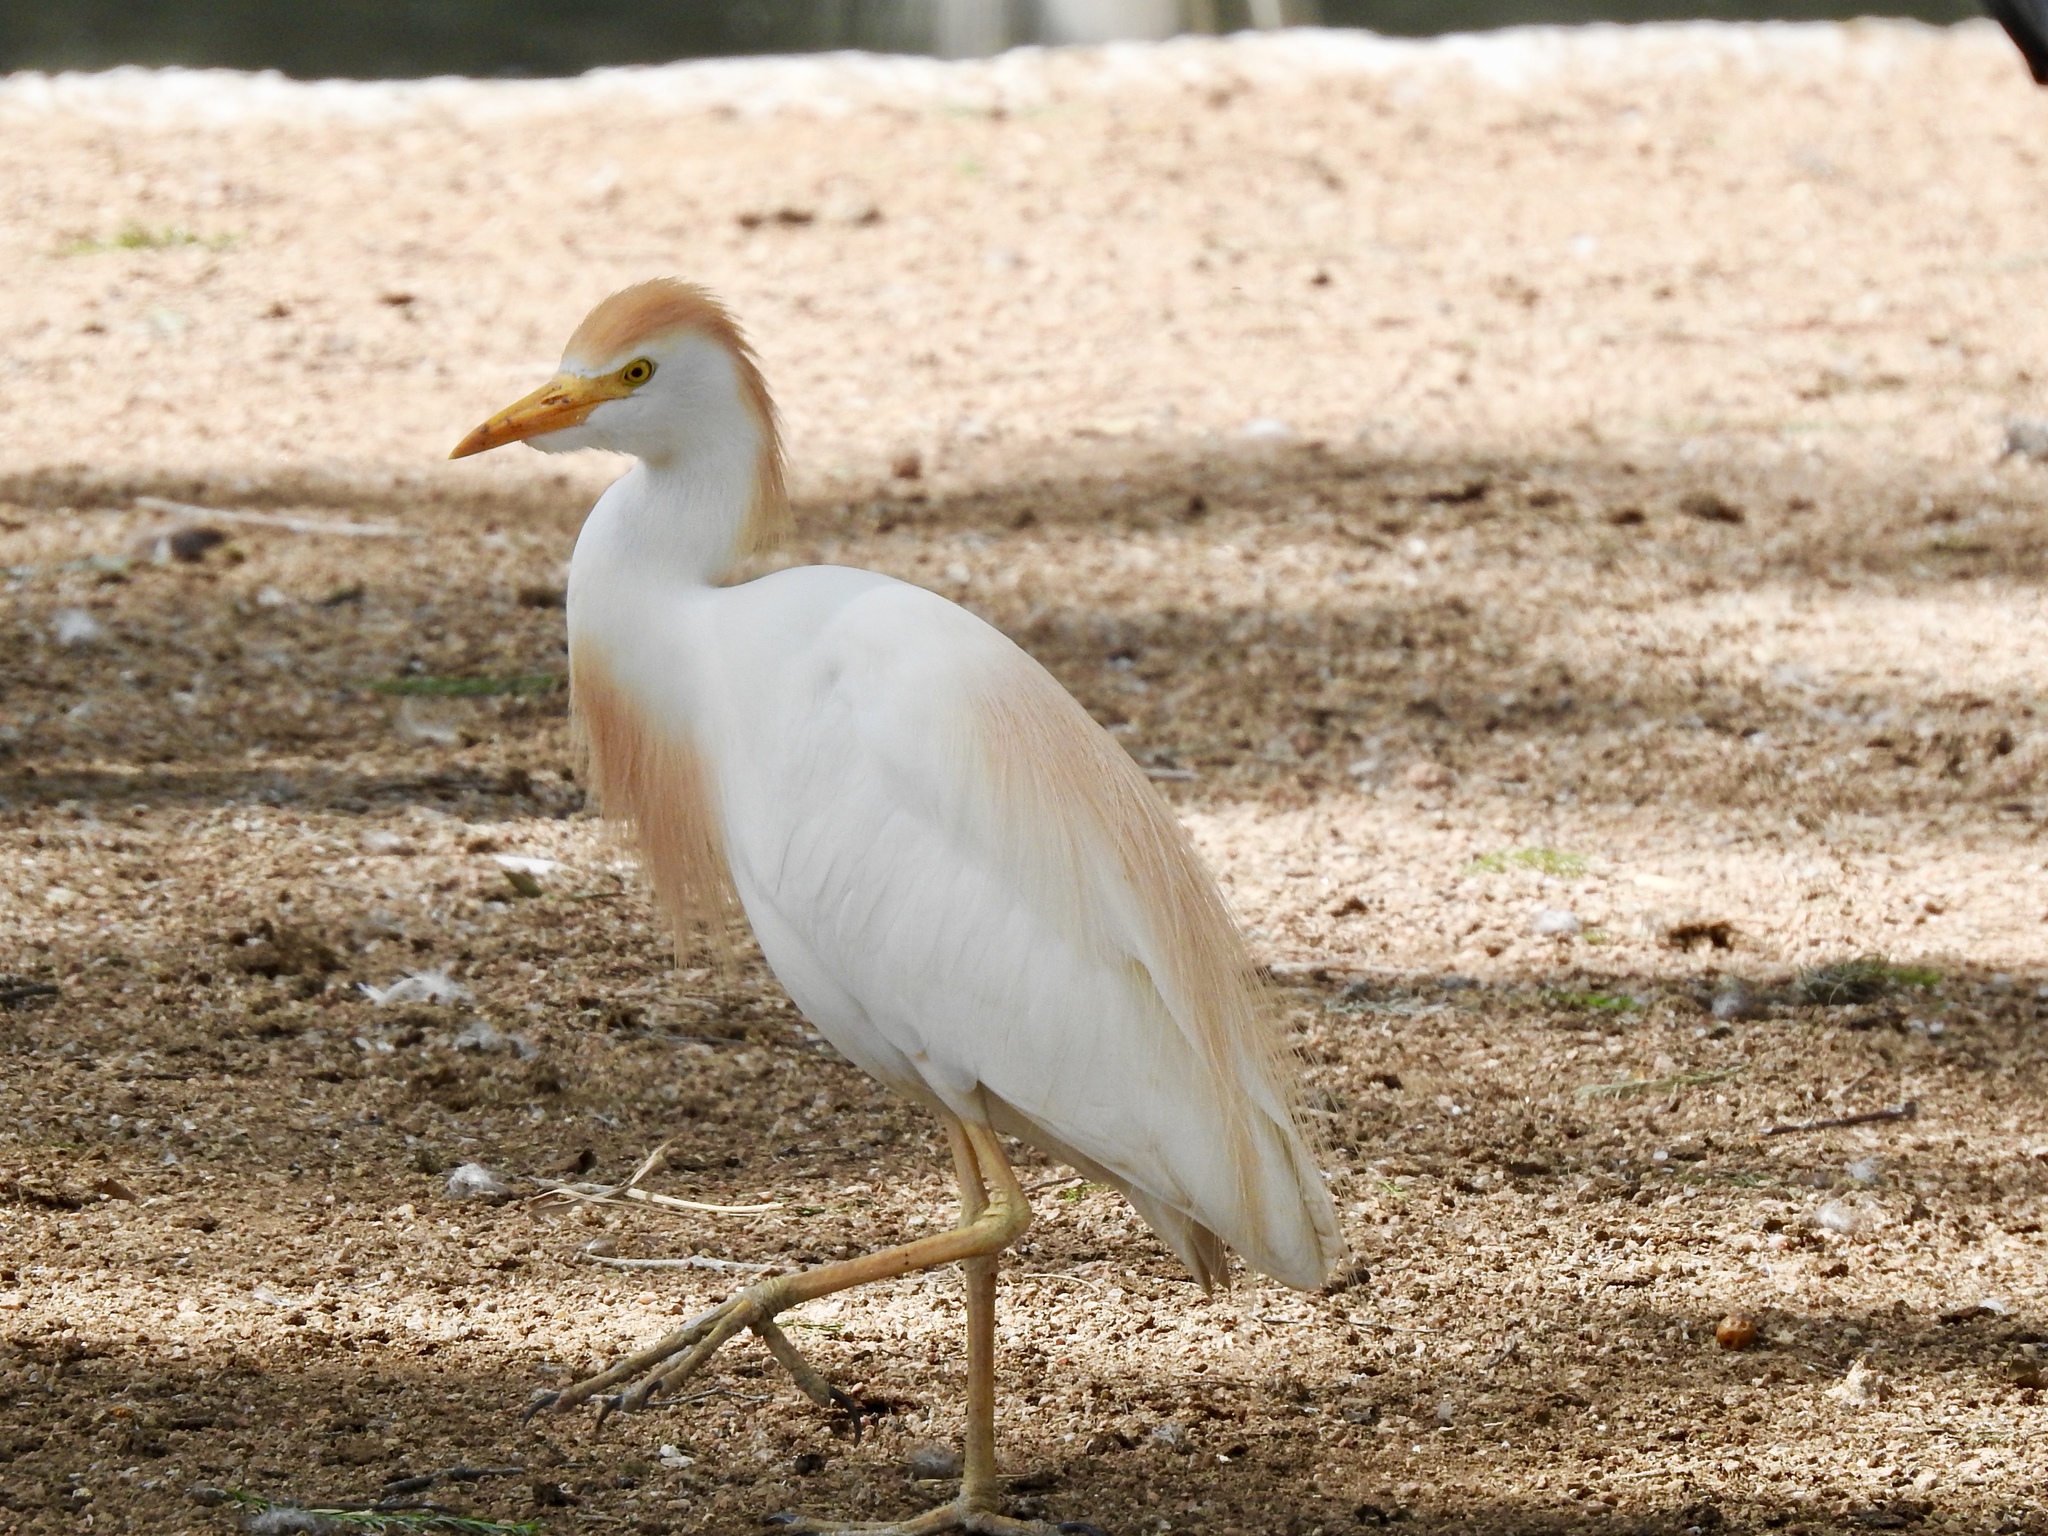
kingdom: Animalia
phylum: Chordata
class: Aves
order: Pelecaniformes
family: Ardeidae
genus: Bubulcus
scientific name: Bubulcus ibis
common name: Cattle egret
